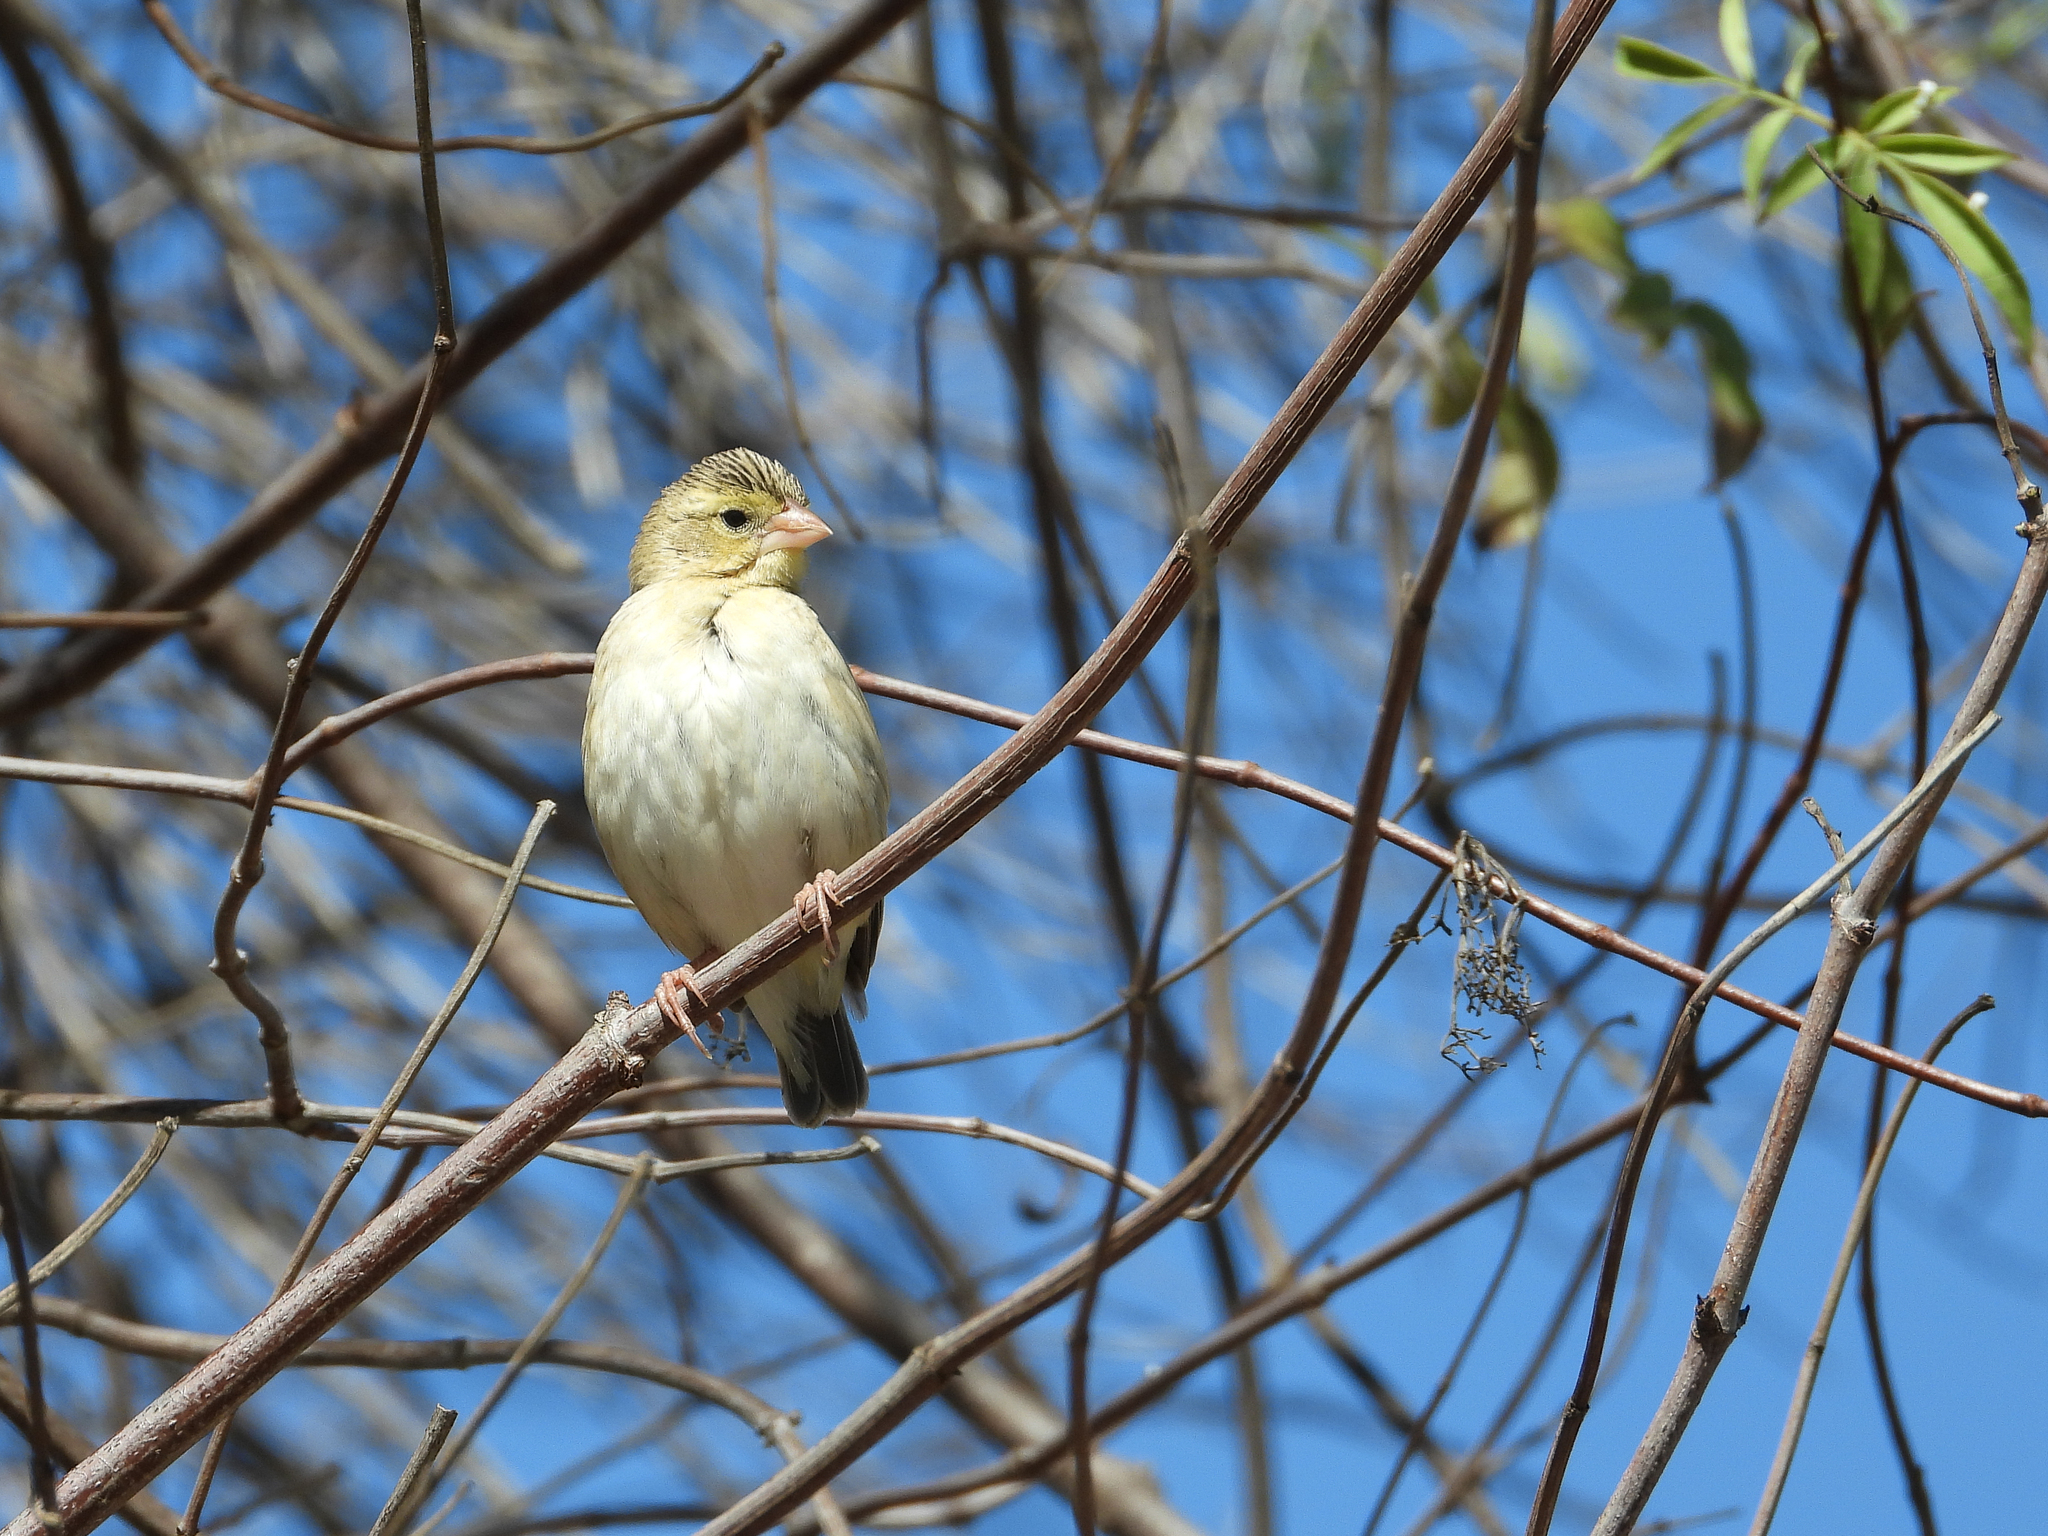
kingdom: Animalia
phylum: Chordata
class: Aves
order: Passeriformes
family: Ploceidae
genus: Euplectes
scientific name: Euplectes franciscanus
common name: Northern red bishop
